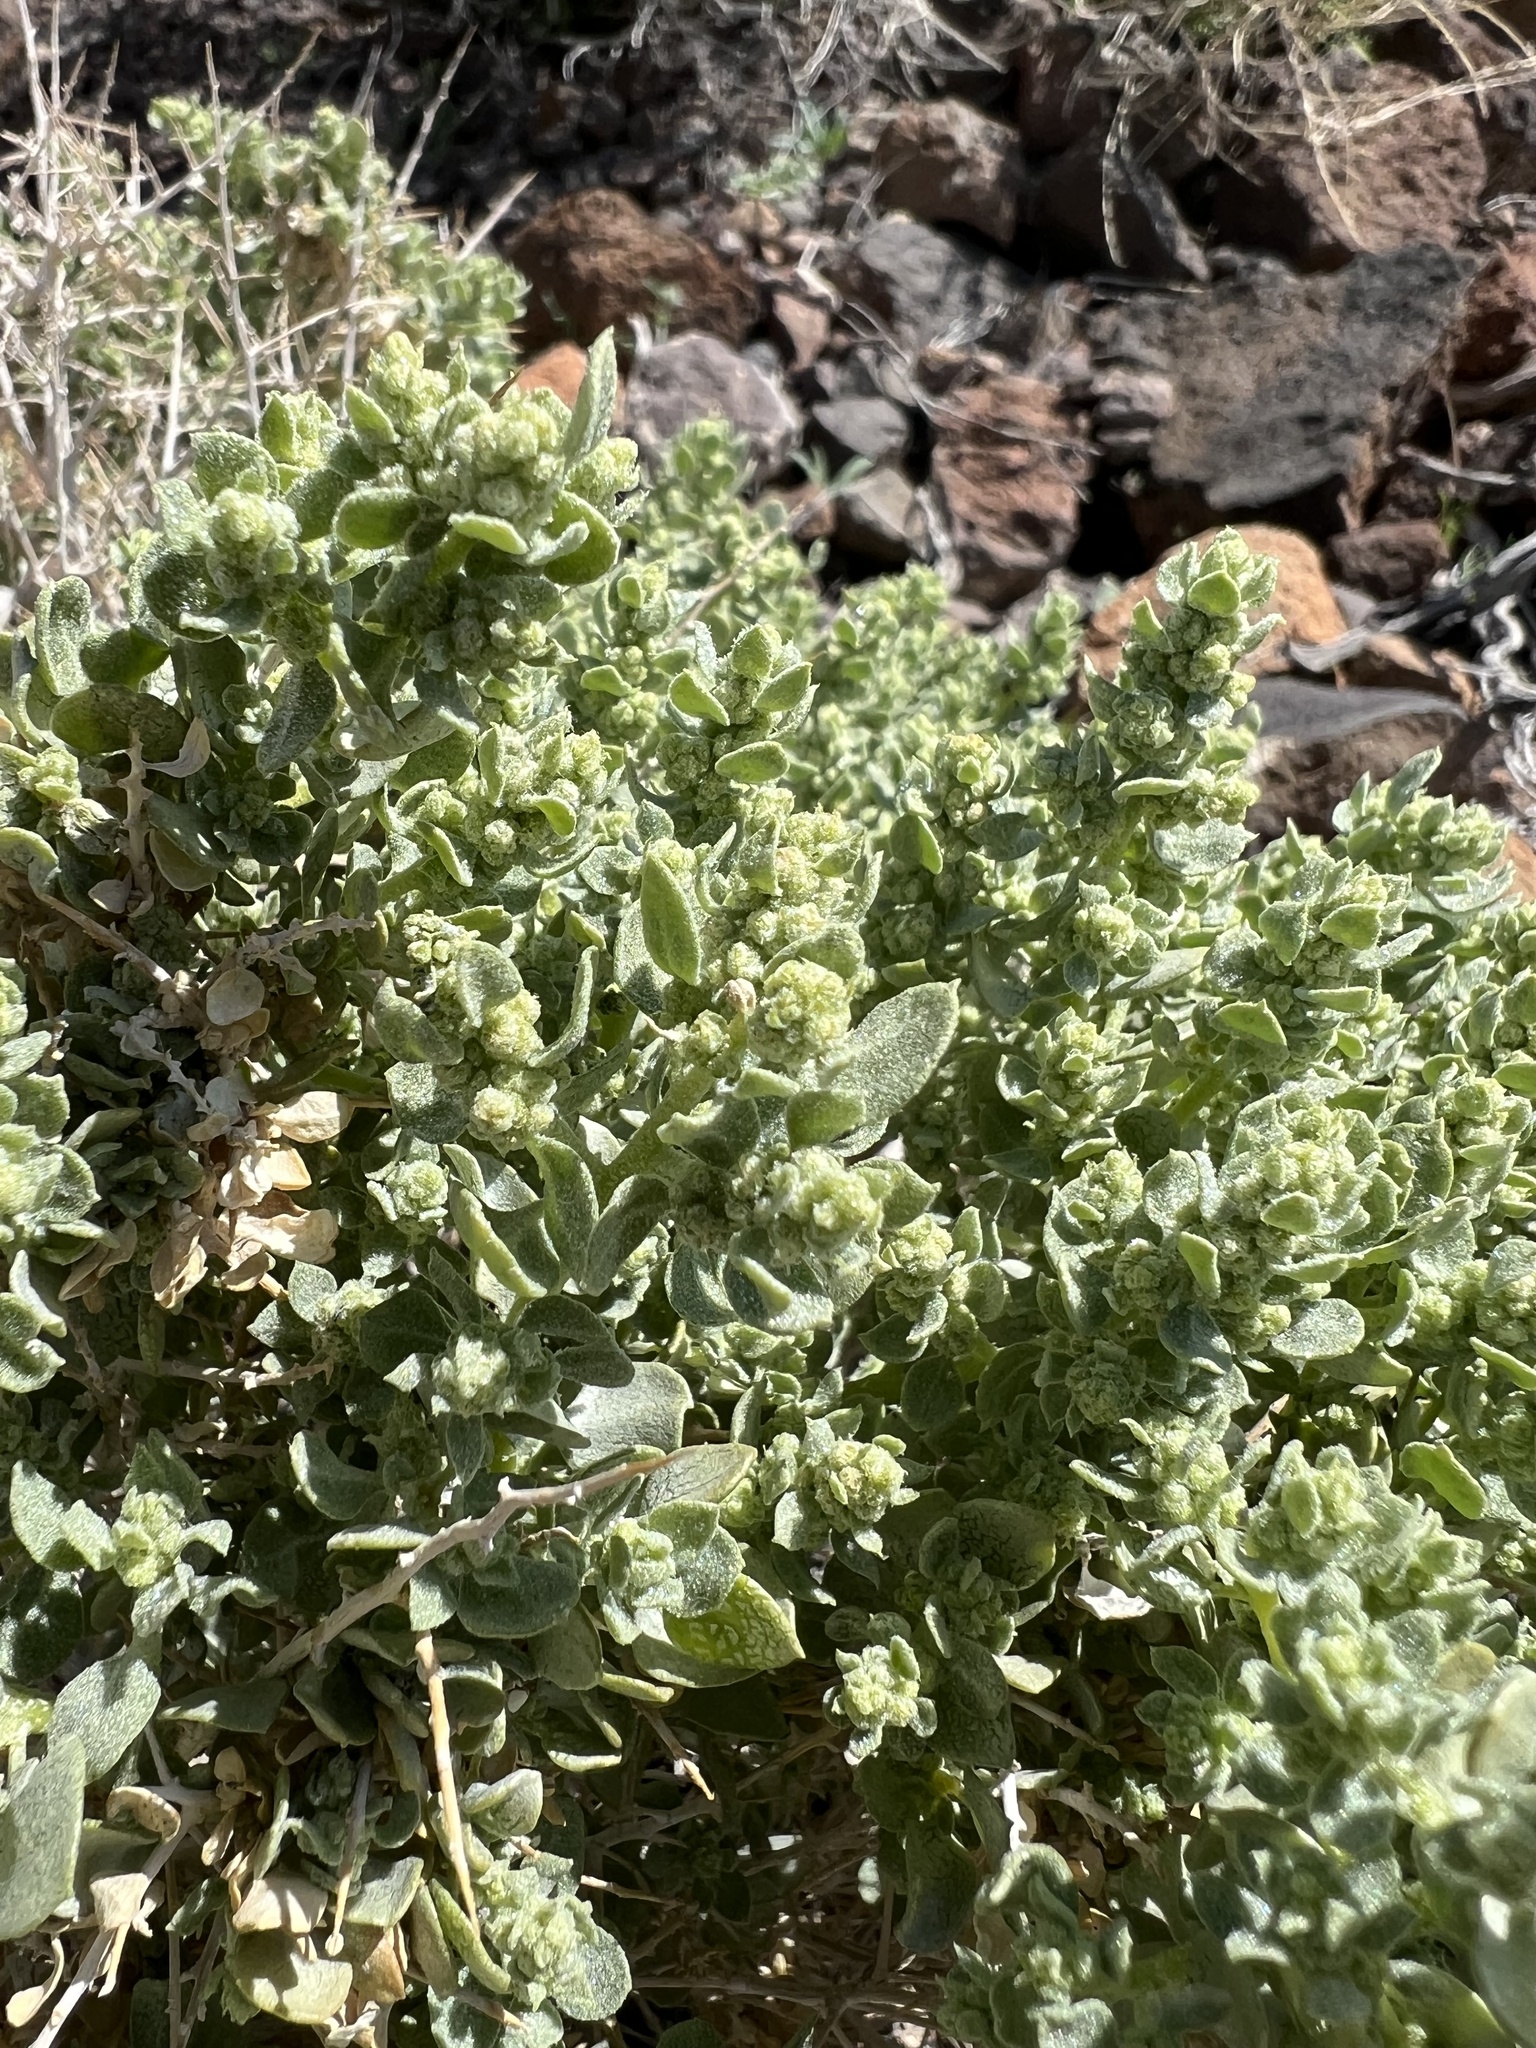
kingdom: Plantae
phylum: Tracheophyta
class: Magnoliopsida
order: Caryophyllales
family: Amaranthaceae
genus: Atriplex
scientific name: Atriplex confertifolia
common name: Shadscale
